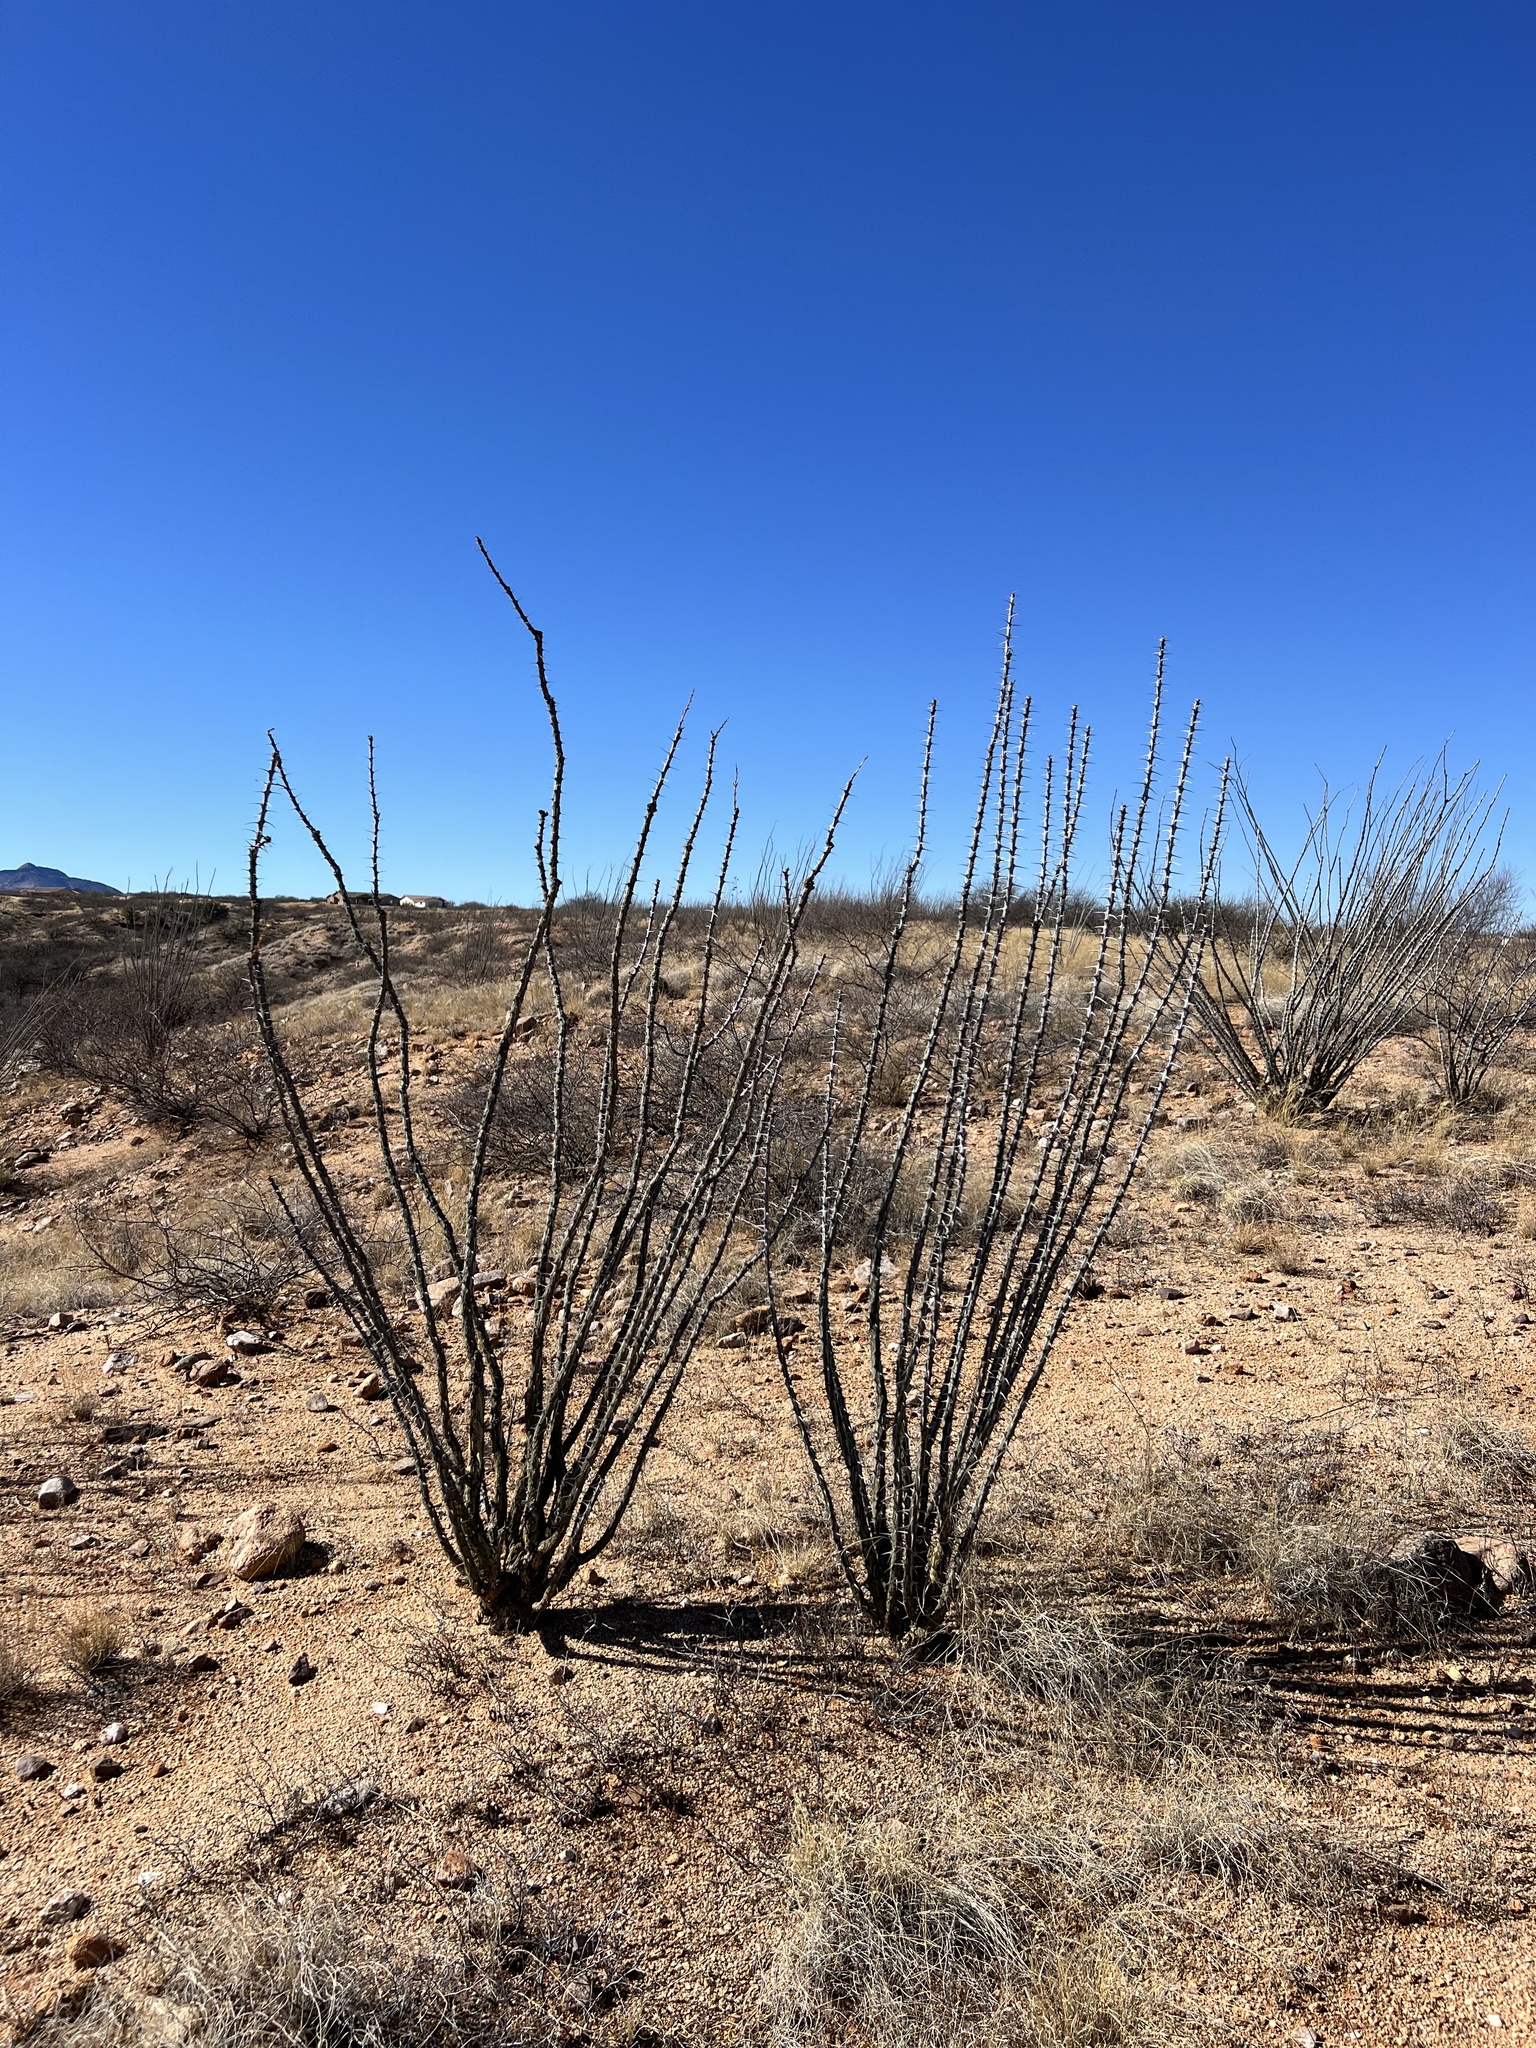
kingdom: Plantae
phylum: Tracheophyta
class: Magnoliopsida
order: Ericales
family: Fouquieriaceae
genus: Fouquieria
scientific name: Fouquieria splendens
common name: Vine-cactus
